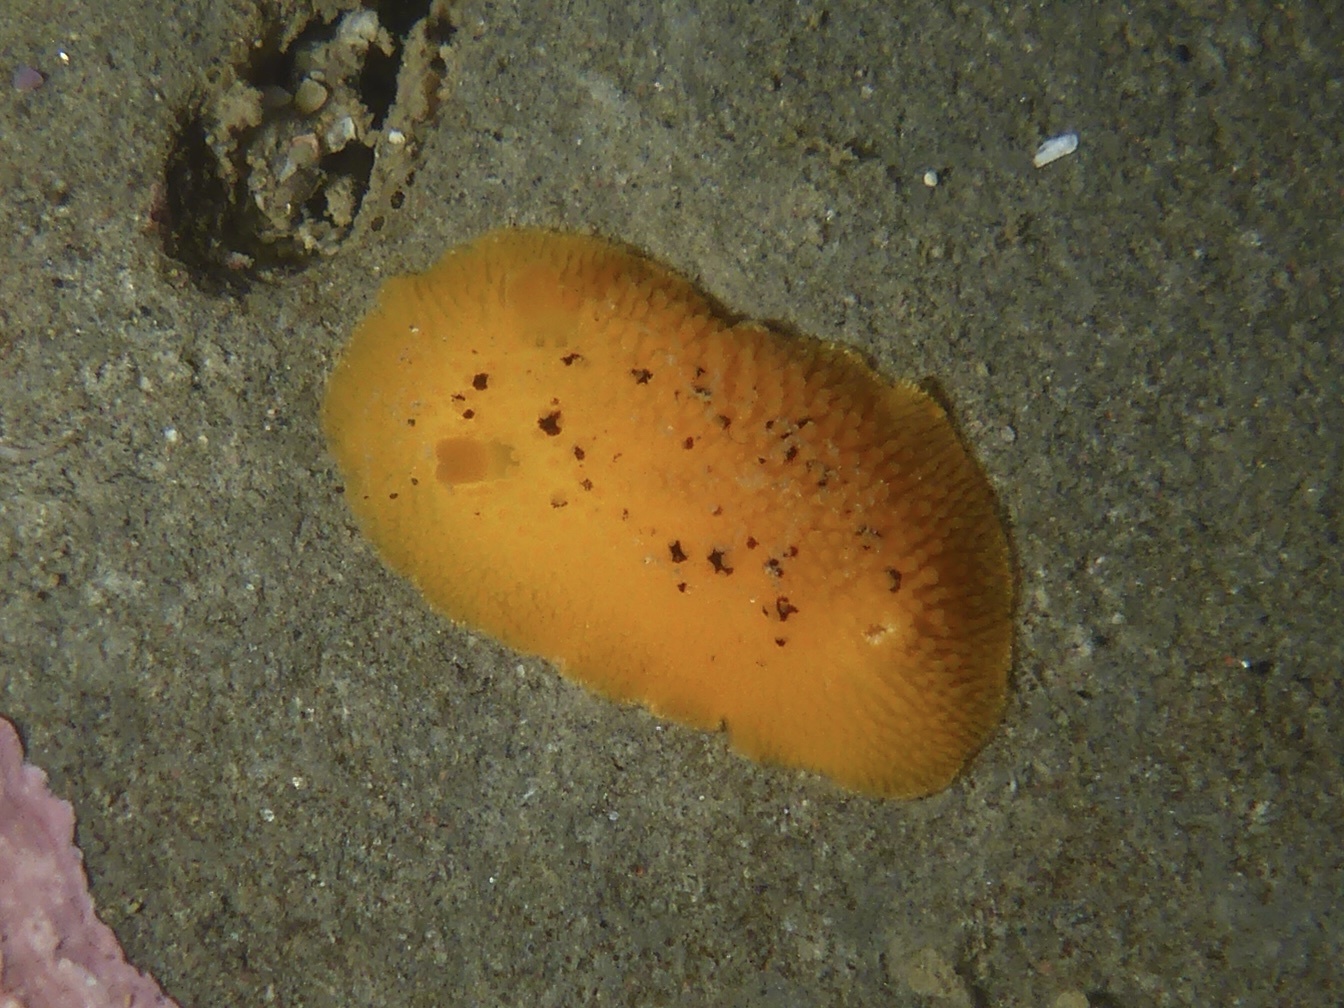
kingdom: Animalia
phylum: Mollusca
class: Gastropoda
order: Nudibranchia
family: Discodorididae
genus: Peltodoris
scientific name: Peltodoris nobilis
